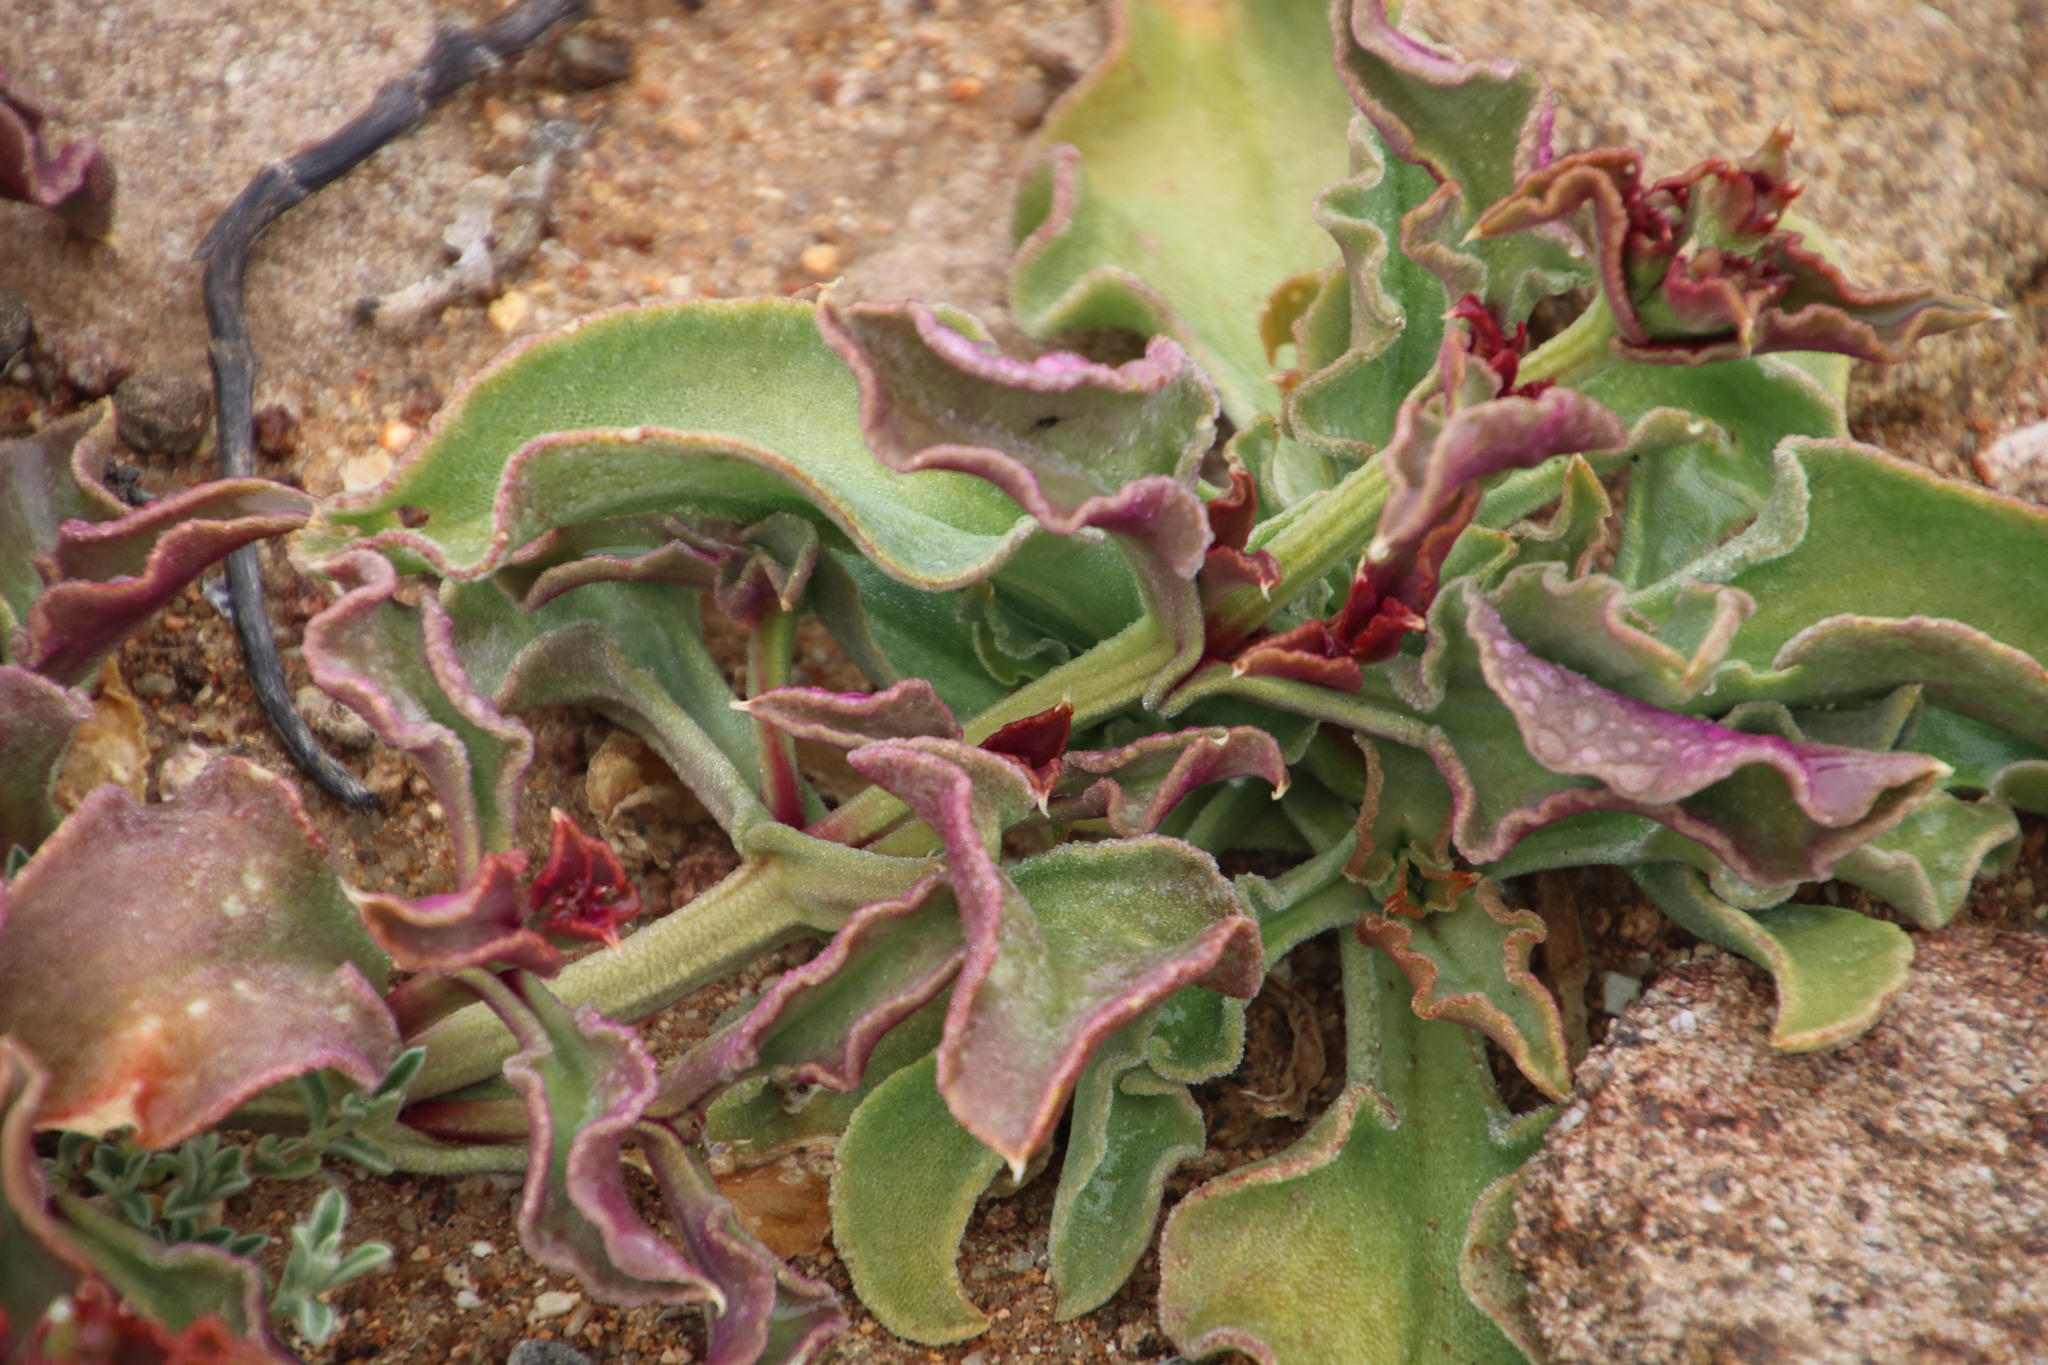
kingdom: Plantae
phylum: Tracheophyta
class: Magnoliopsida
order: Caryophyllales
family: Aizoaceae
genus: Mesembryanthemum
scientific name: Mesembryanthemum crystallinum
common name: Common iceplant
